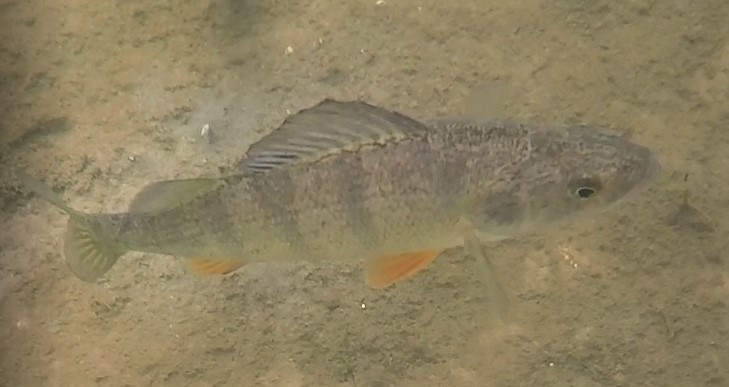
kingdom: Animalia
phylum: Chordata
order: Perciformes
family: Percidae
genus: Perca
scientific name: Perca flavescens
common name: Yellow perch
